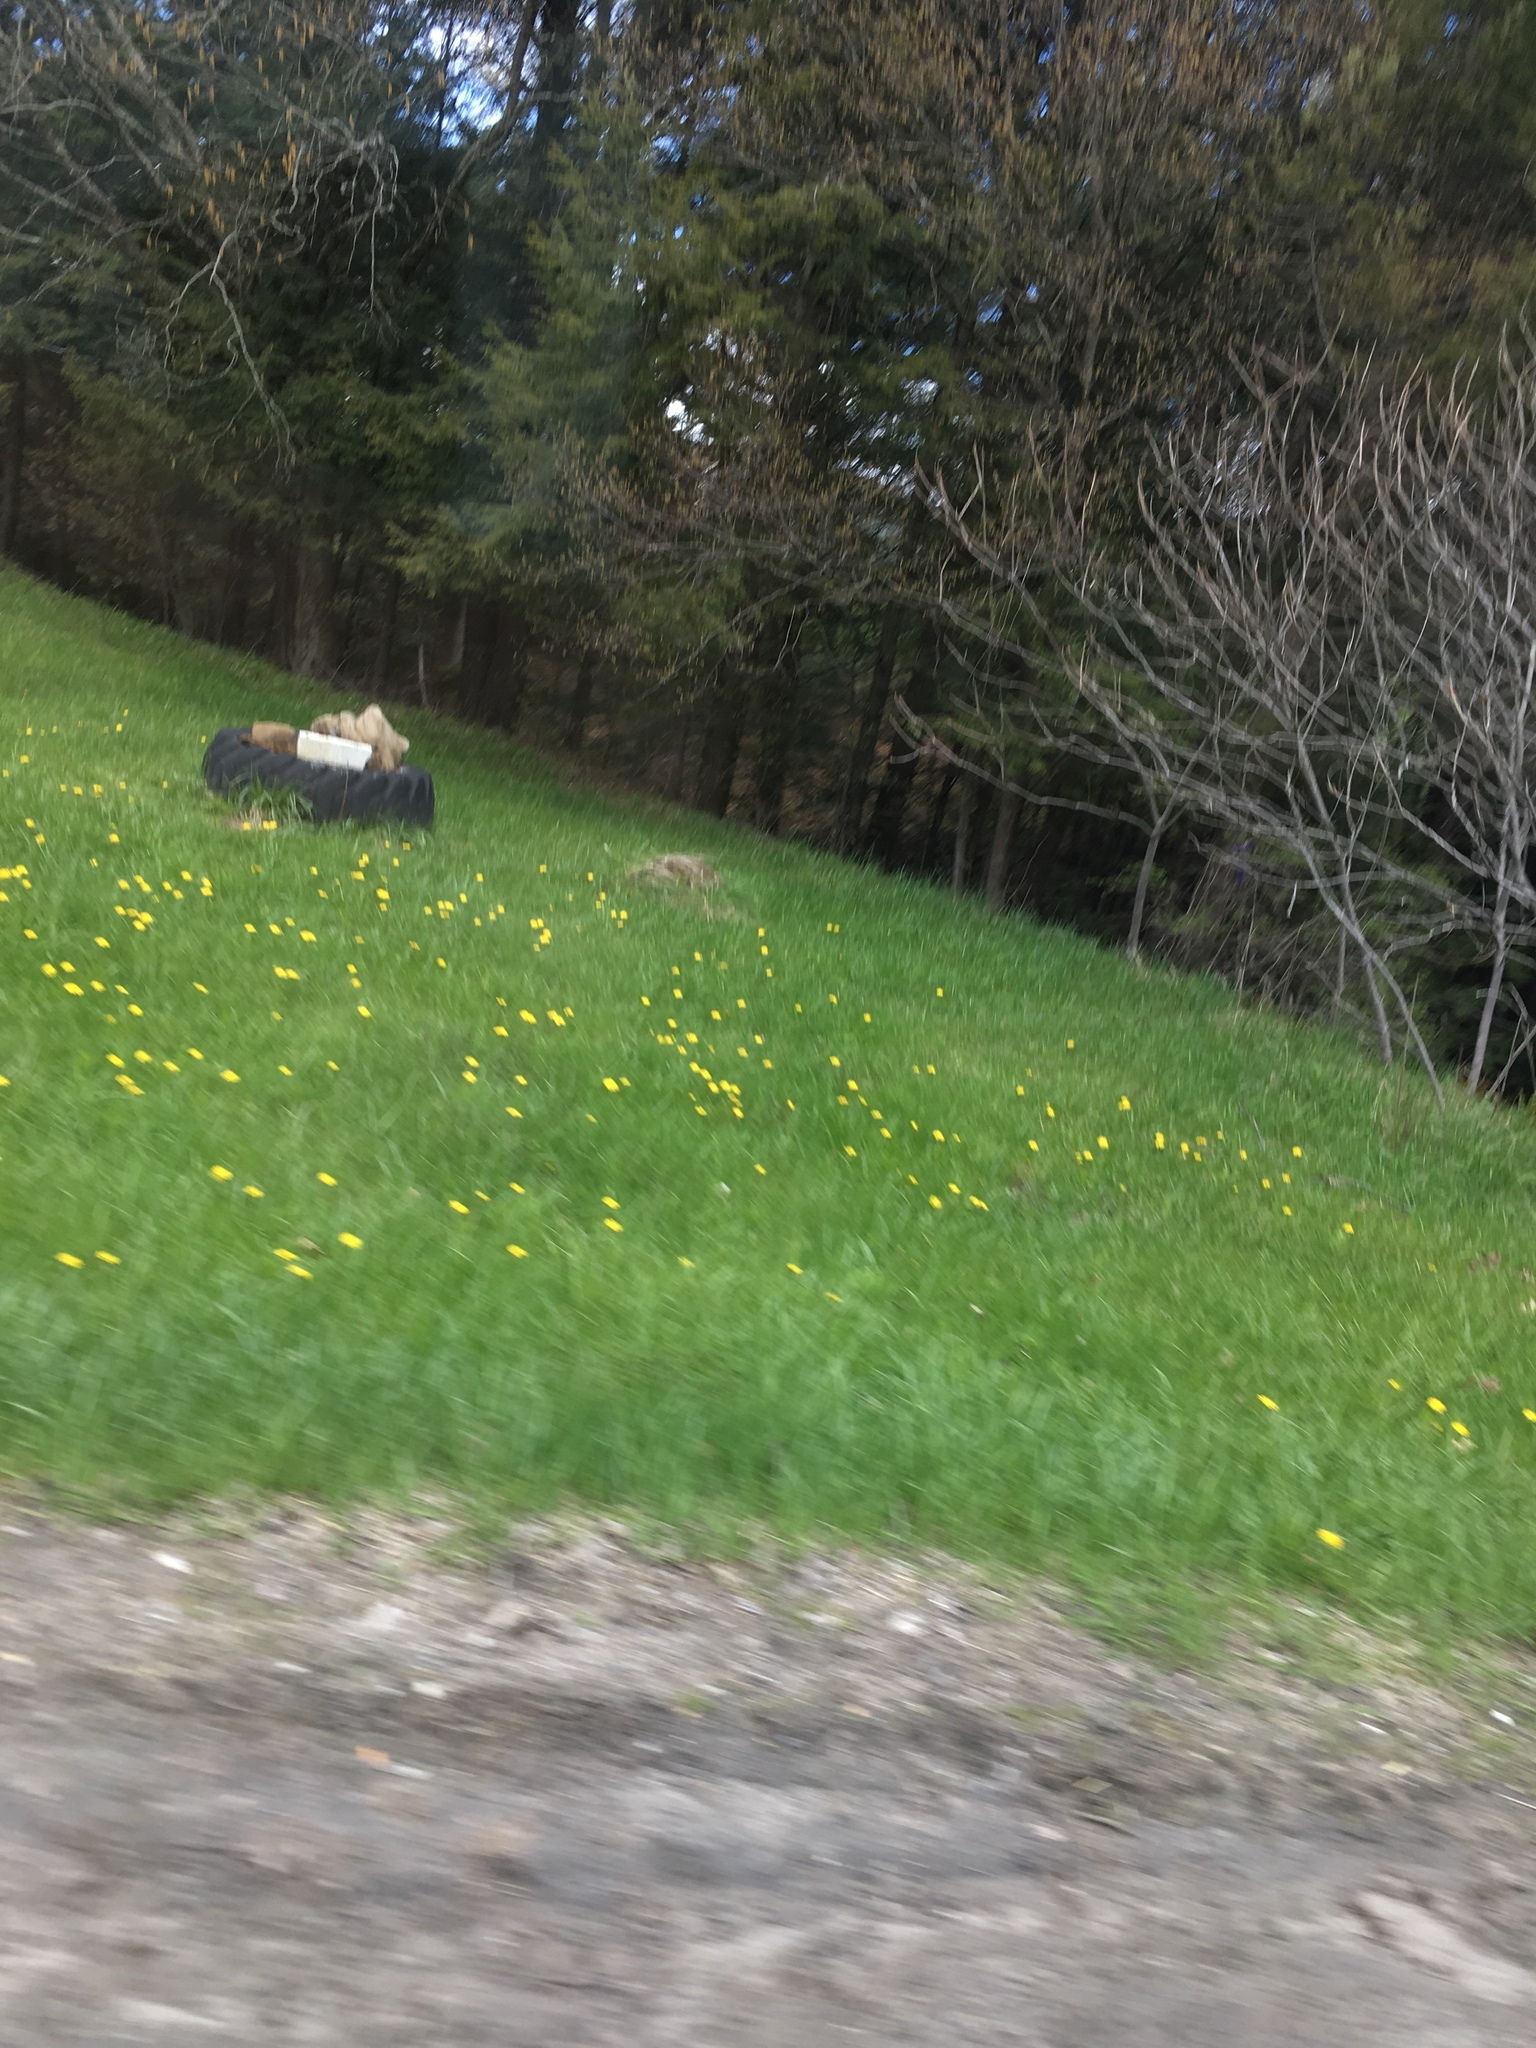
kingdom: Plantae
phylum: Tracheophyta
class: Magnoliopsida
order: Asterales
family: Asteraceae
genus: Taraxacum
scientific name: Taraxacum
